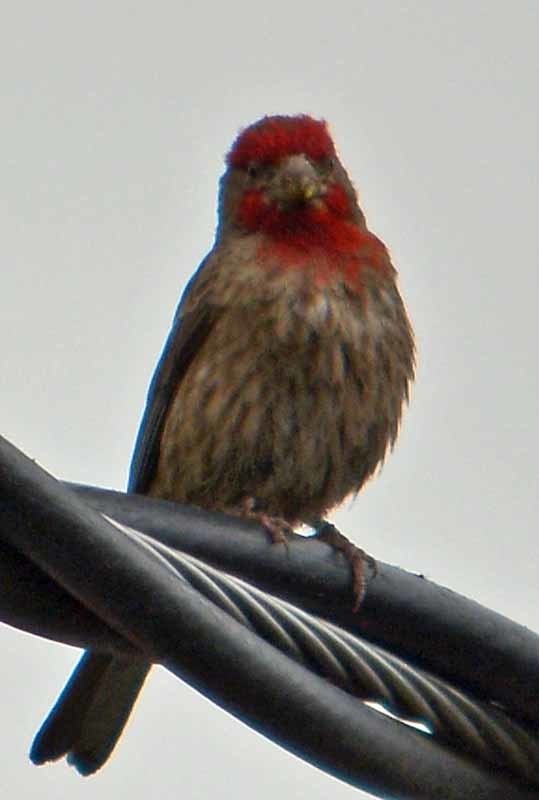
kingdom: Animalia
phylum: Chordata
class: Aves
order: Passeriformes
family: Fringillidae
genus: Haemorhous
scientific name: Haemorhous mexicanus
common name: House finch
